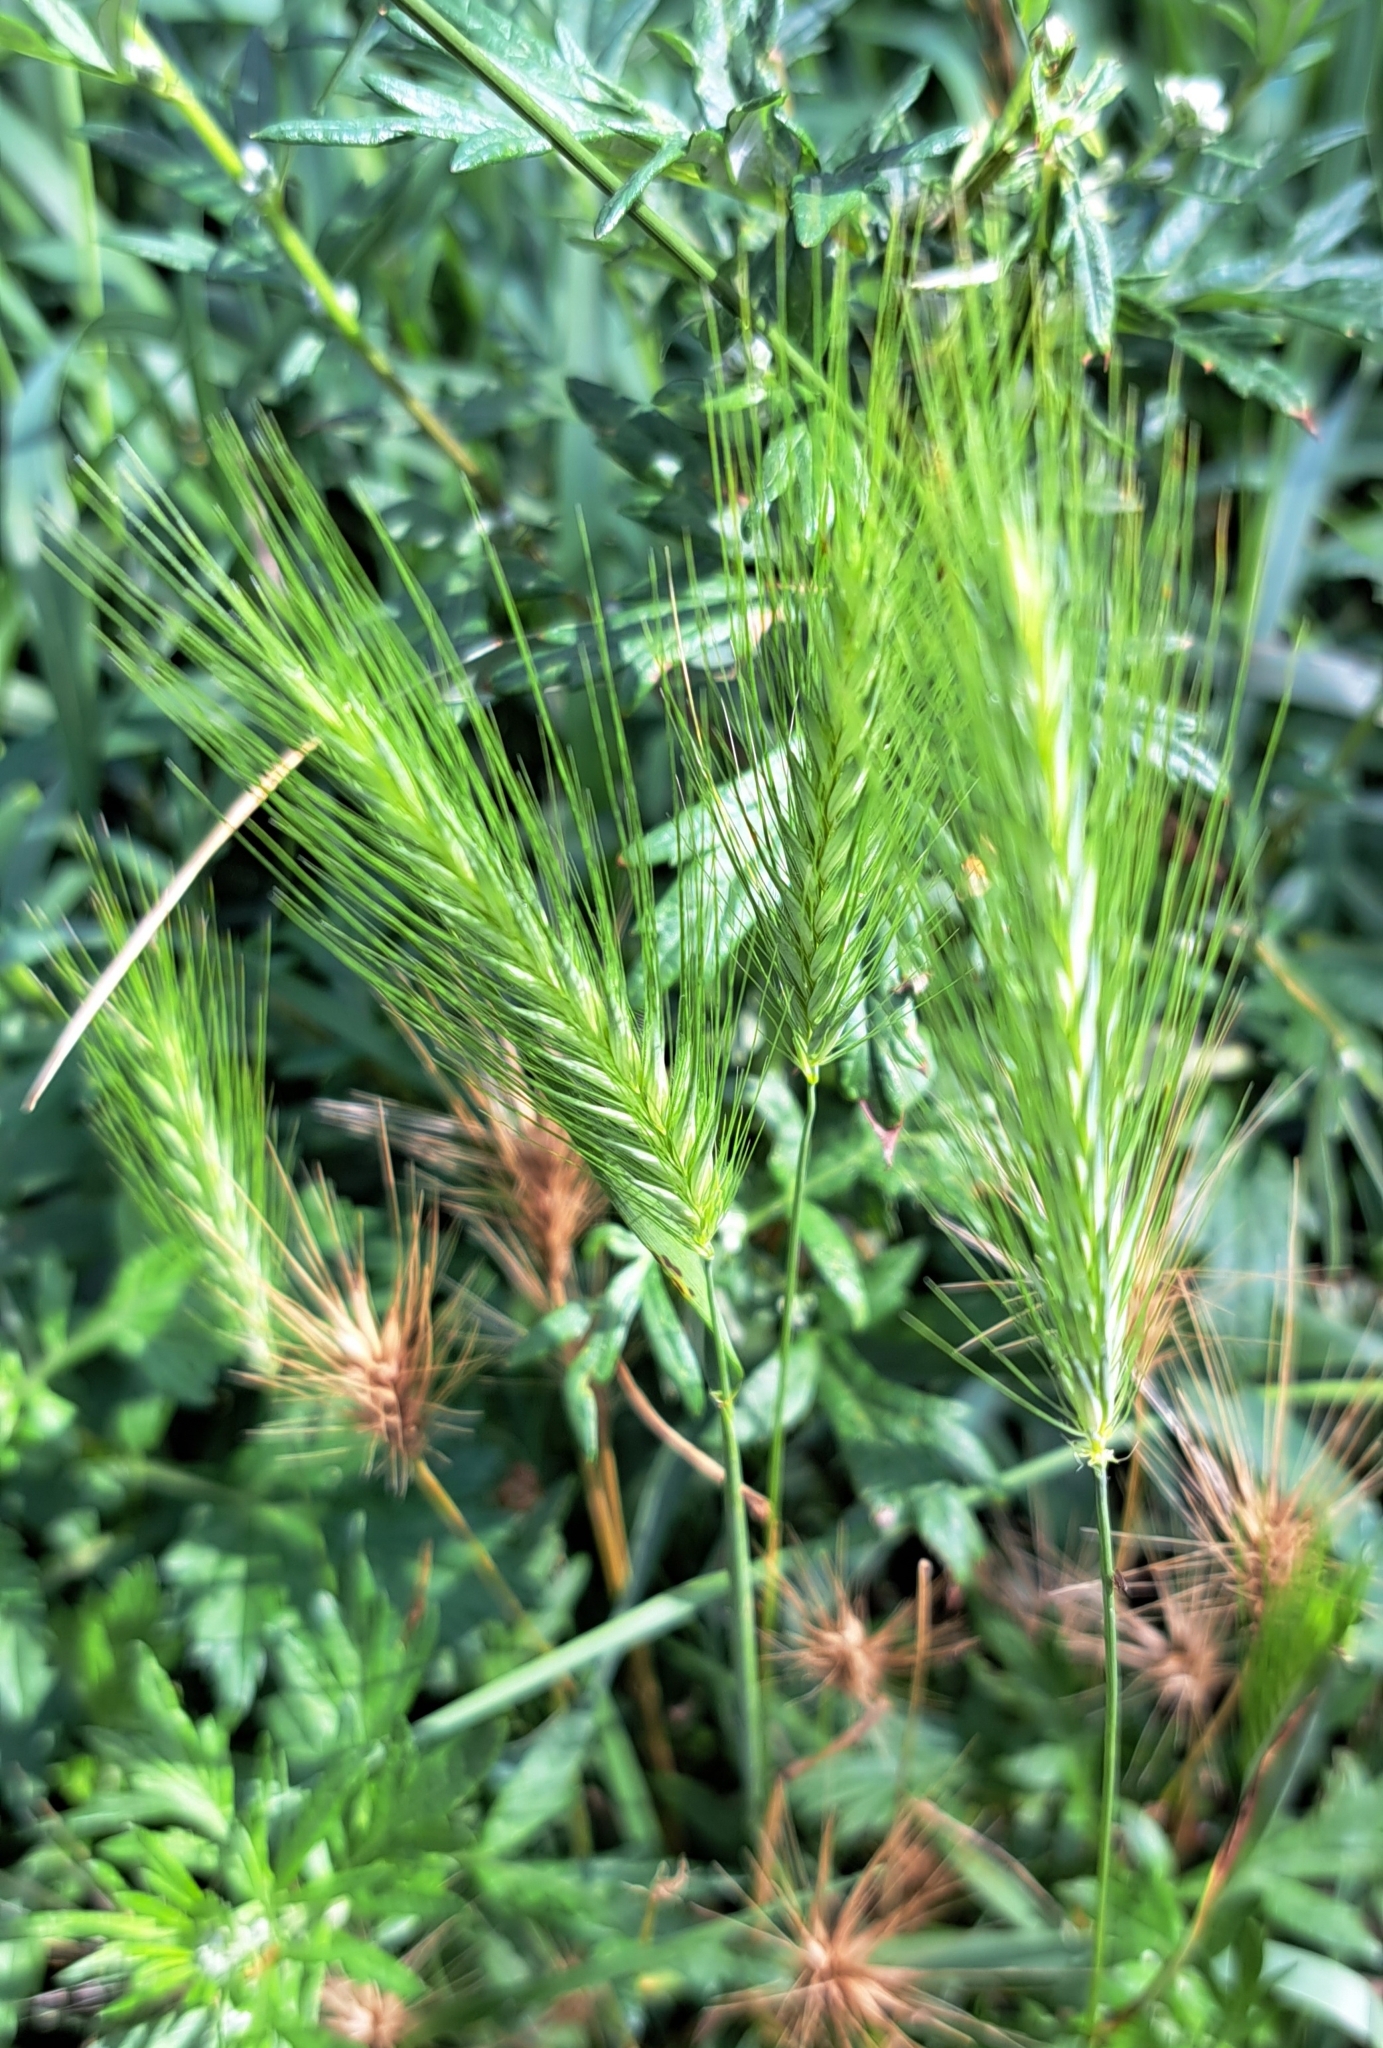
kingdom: Plantae
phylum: Tracheophyta
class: Liliopsida
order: Poales
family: Poaceae
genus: Hordeum
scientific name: Hordeum murinum
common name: Wall barley
